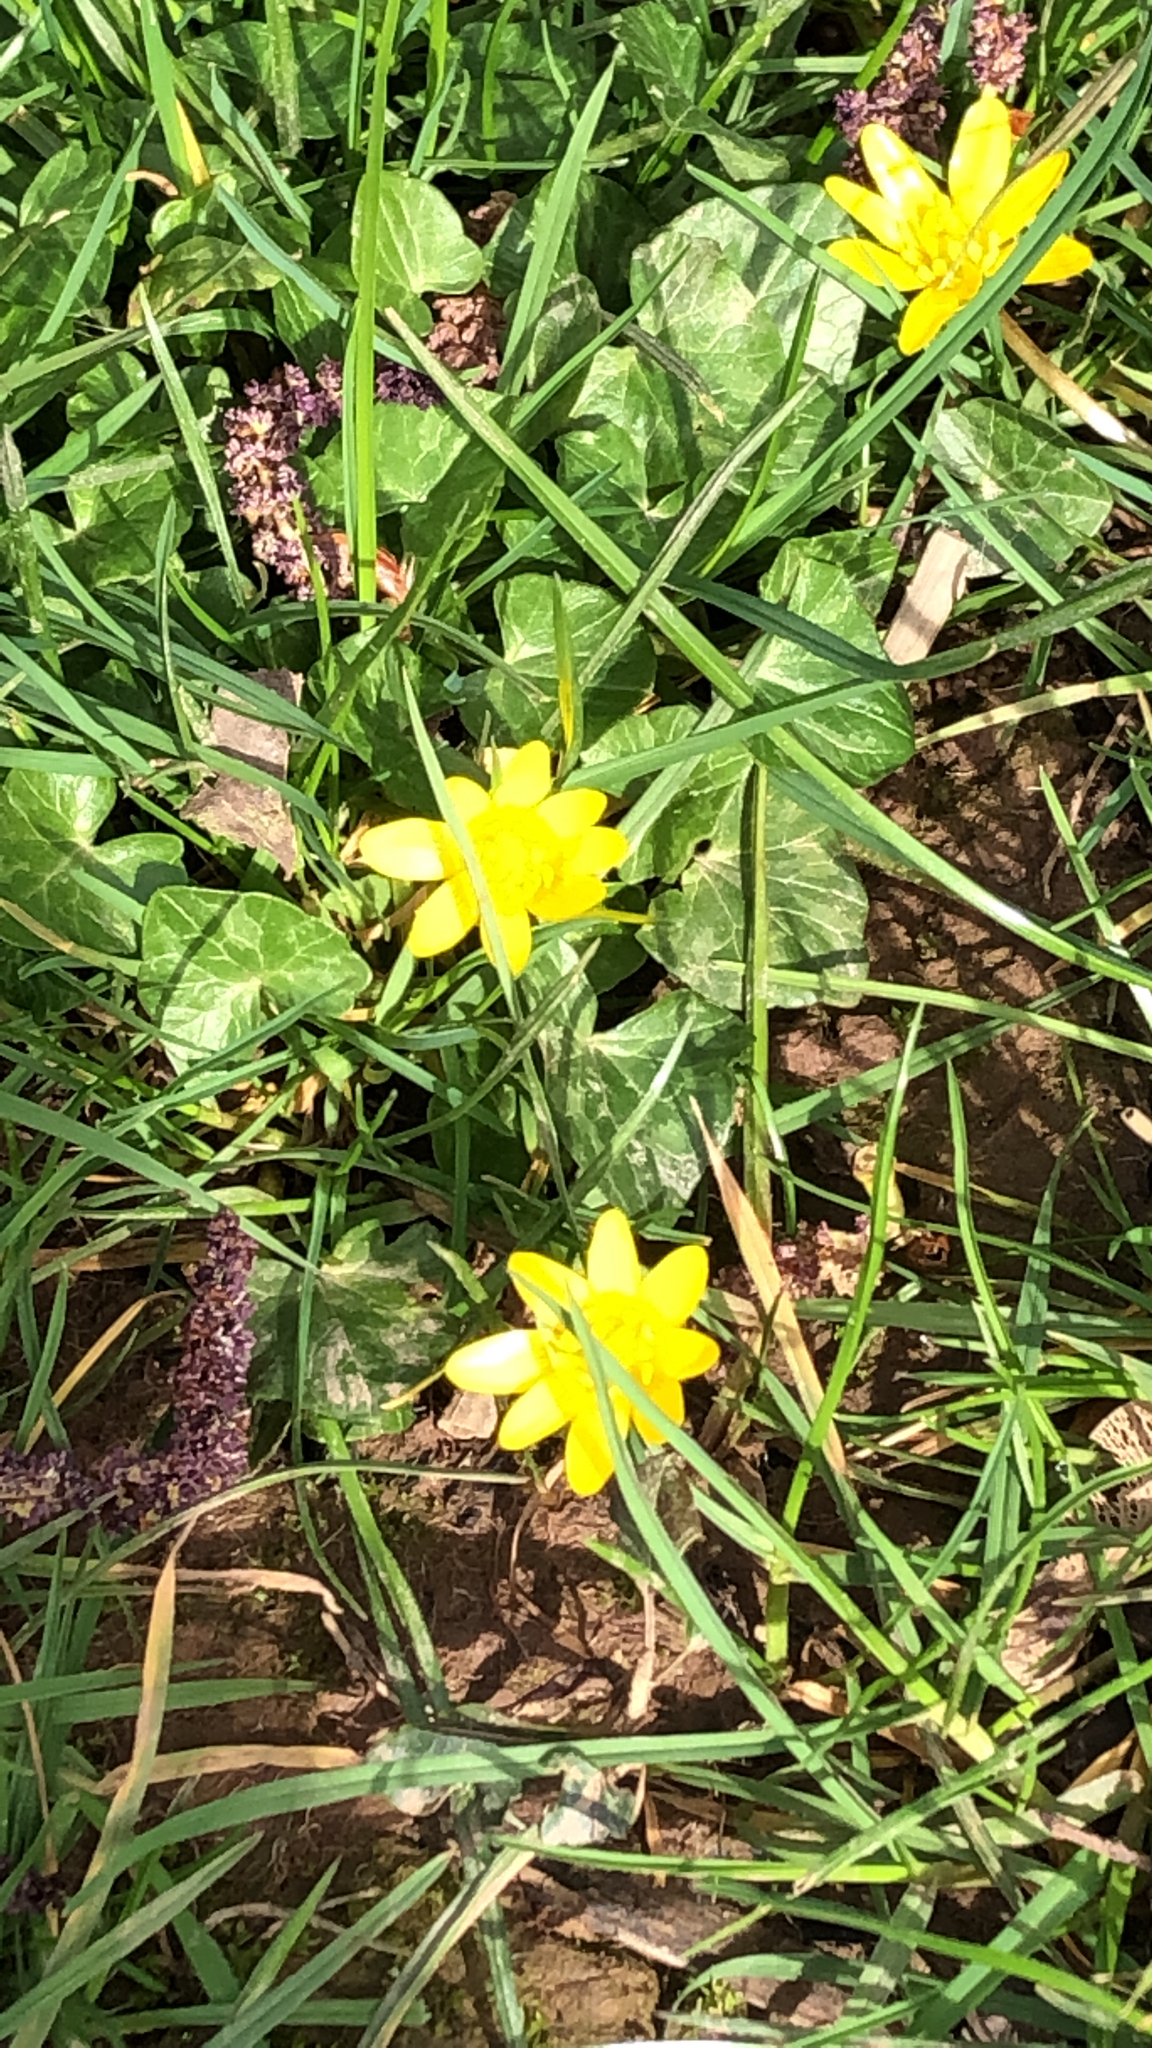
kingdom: Plantae
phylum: Tracheophyta
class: Magnoliopsida
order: Ranunculales
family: Ranunculaceae
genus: Ficaria
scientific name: Ficaria verna
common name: Lesser celandine
